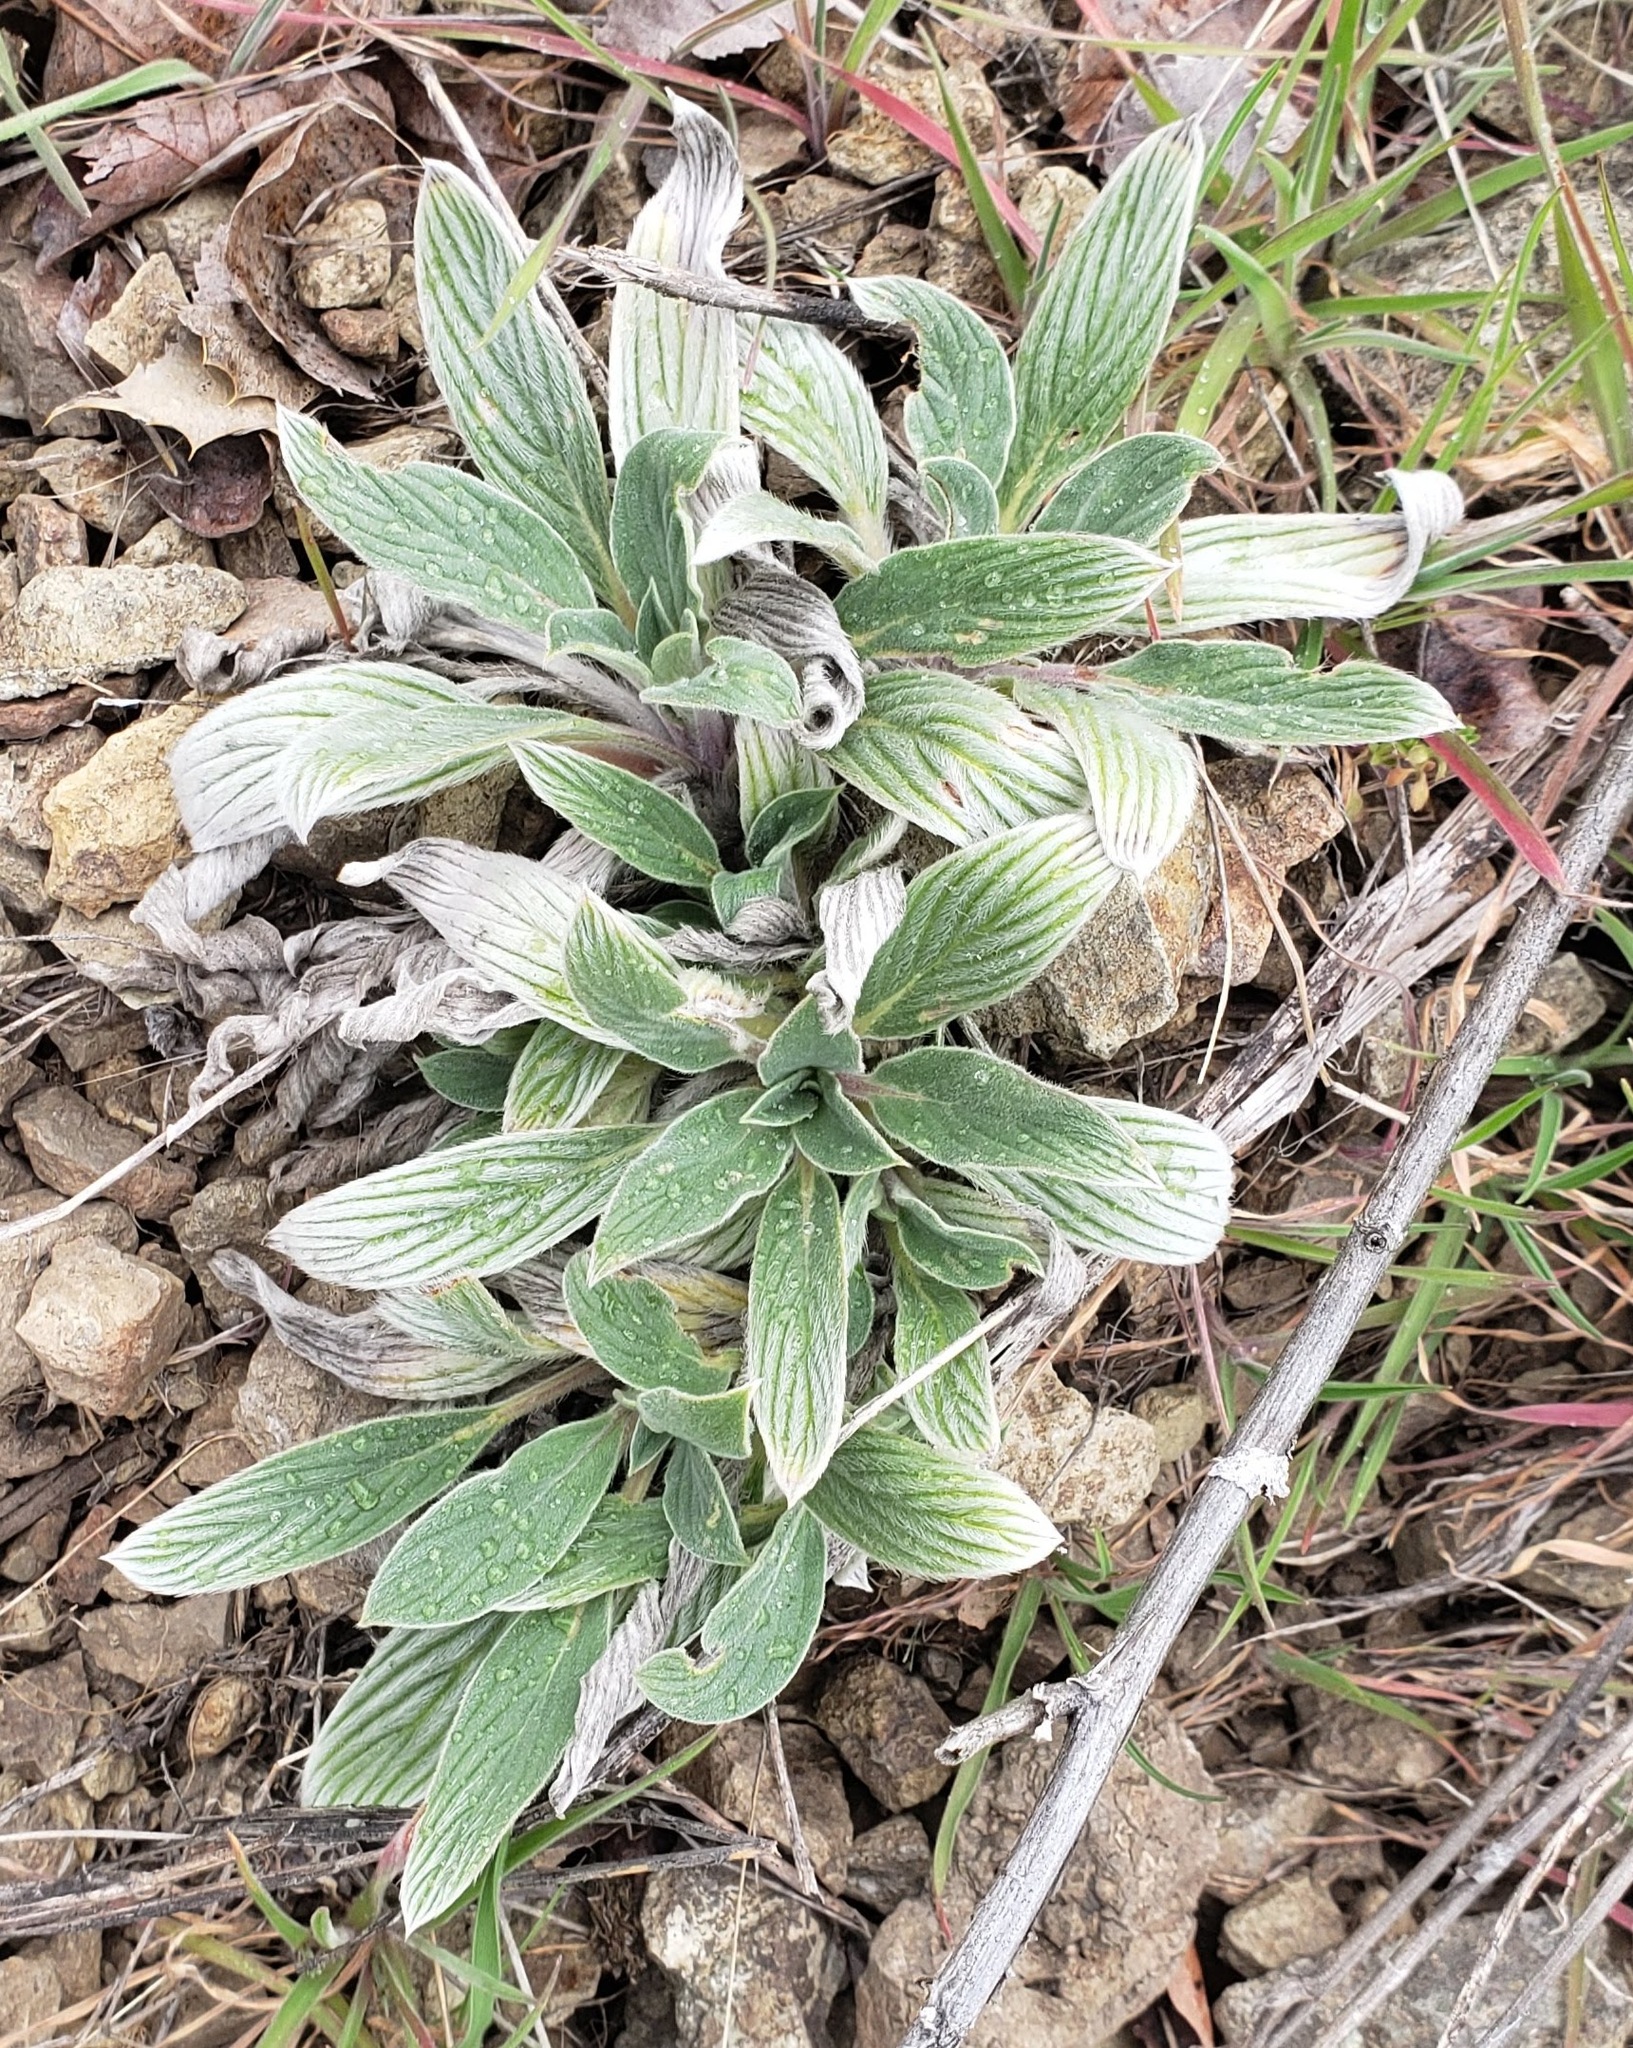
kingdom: Plantae
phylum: Tracheophyta
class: Magnoliopsida
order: Boraginales
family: Hydrophyllaceae
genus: Phacelia
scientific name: Phacelia hastata
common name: Silver-leaved phacelia
